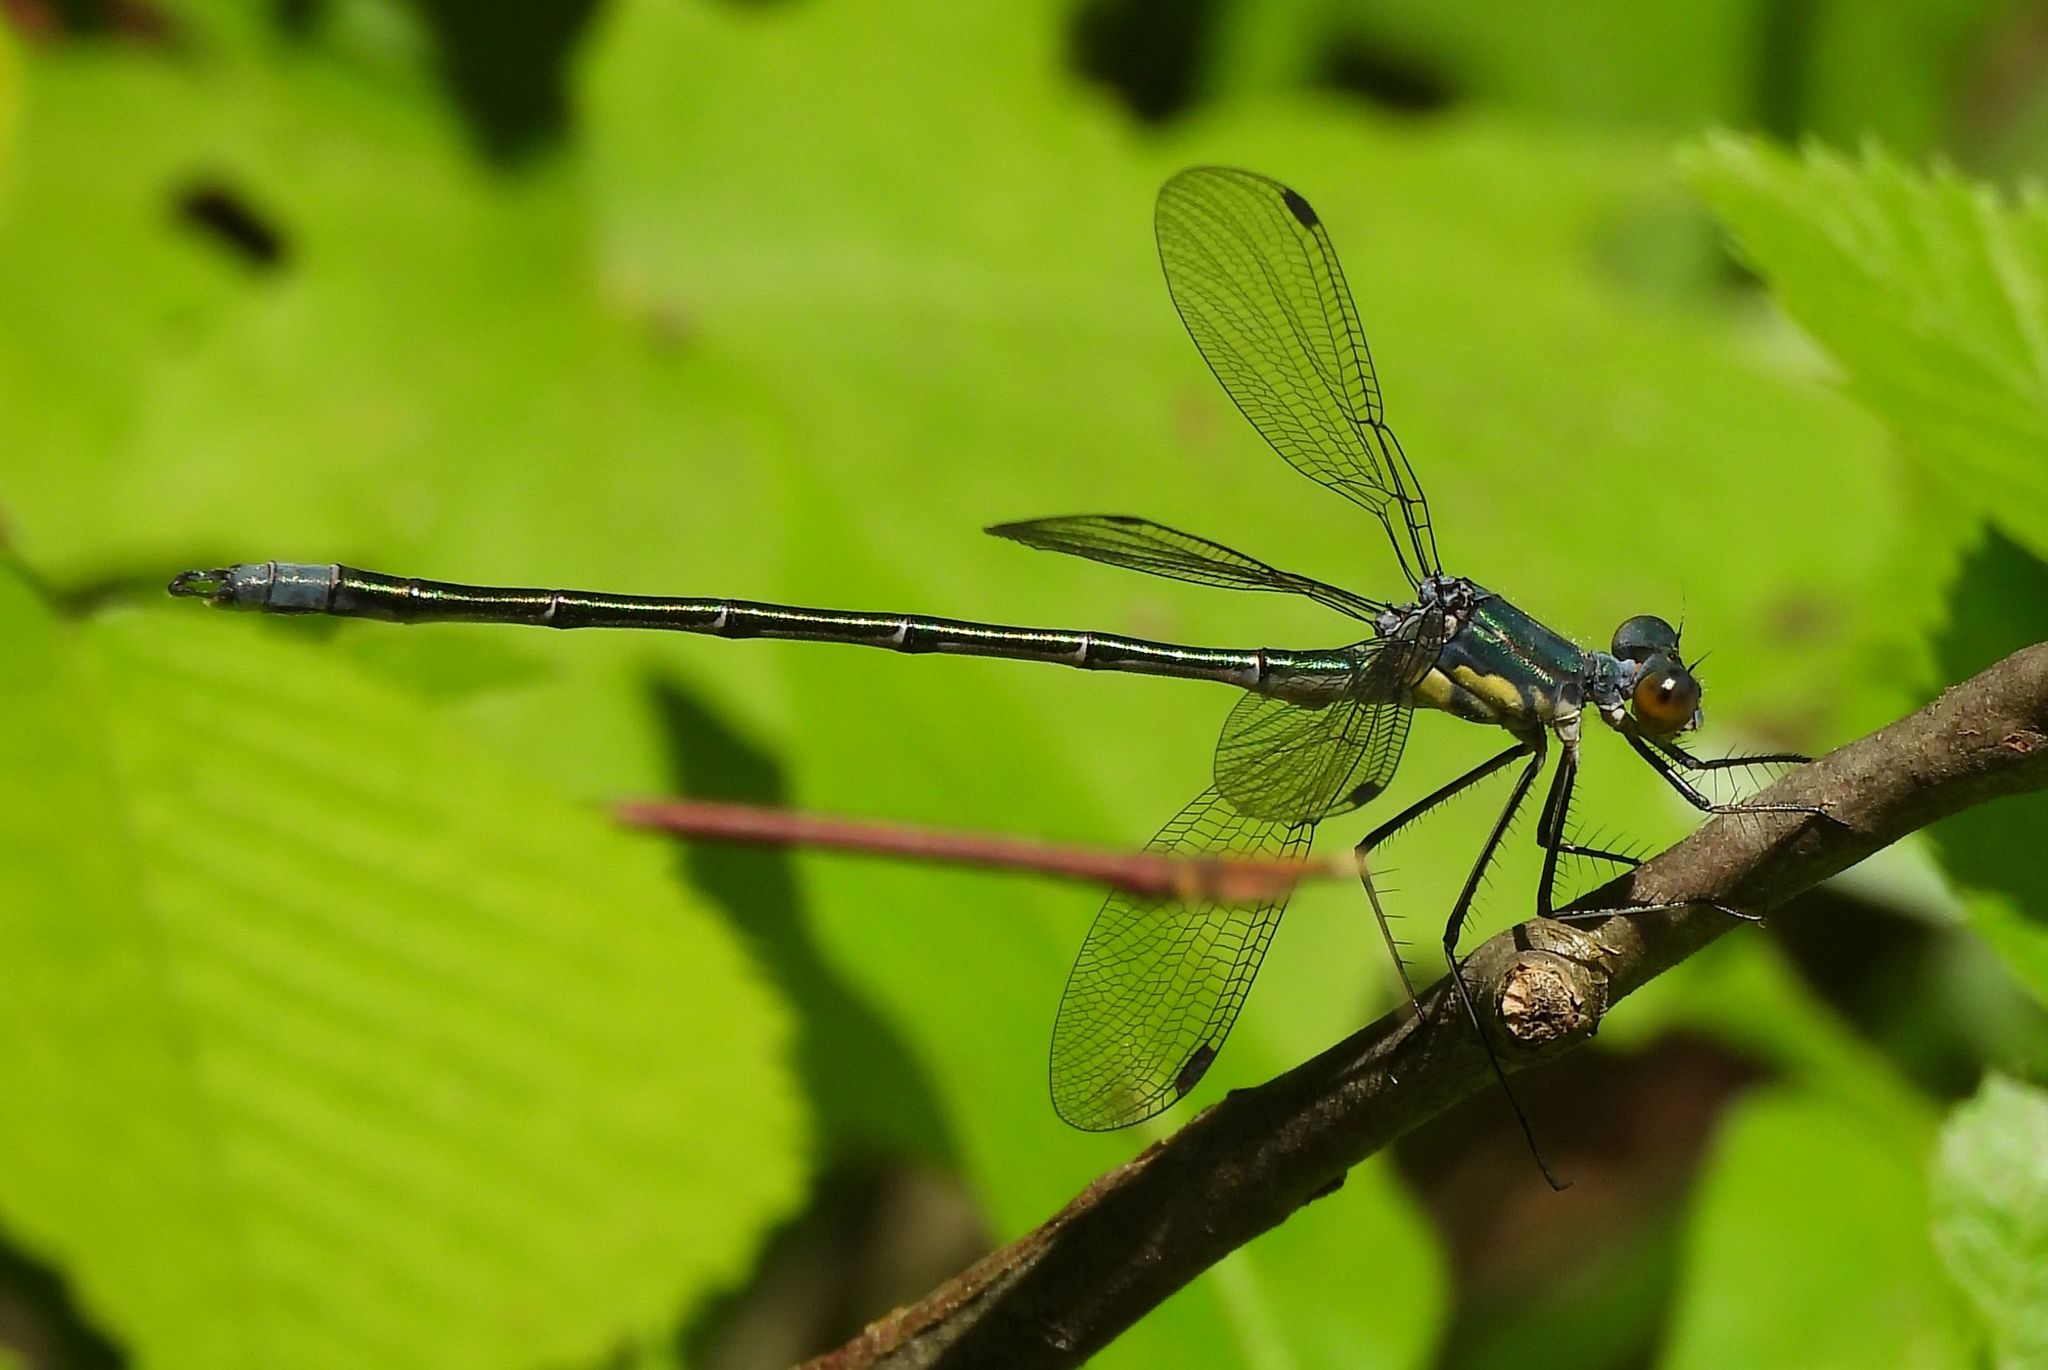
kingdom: Animalia
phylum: Arthropoda
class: Insecta
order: Odonata
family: Lestidae
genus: Lestes
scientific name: Lestes eurinus
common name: Amber-winged spreadwing
